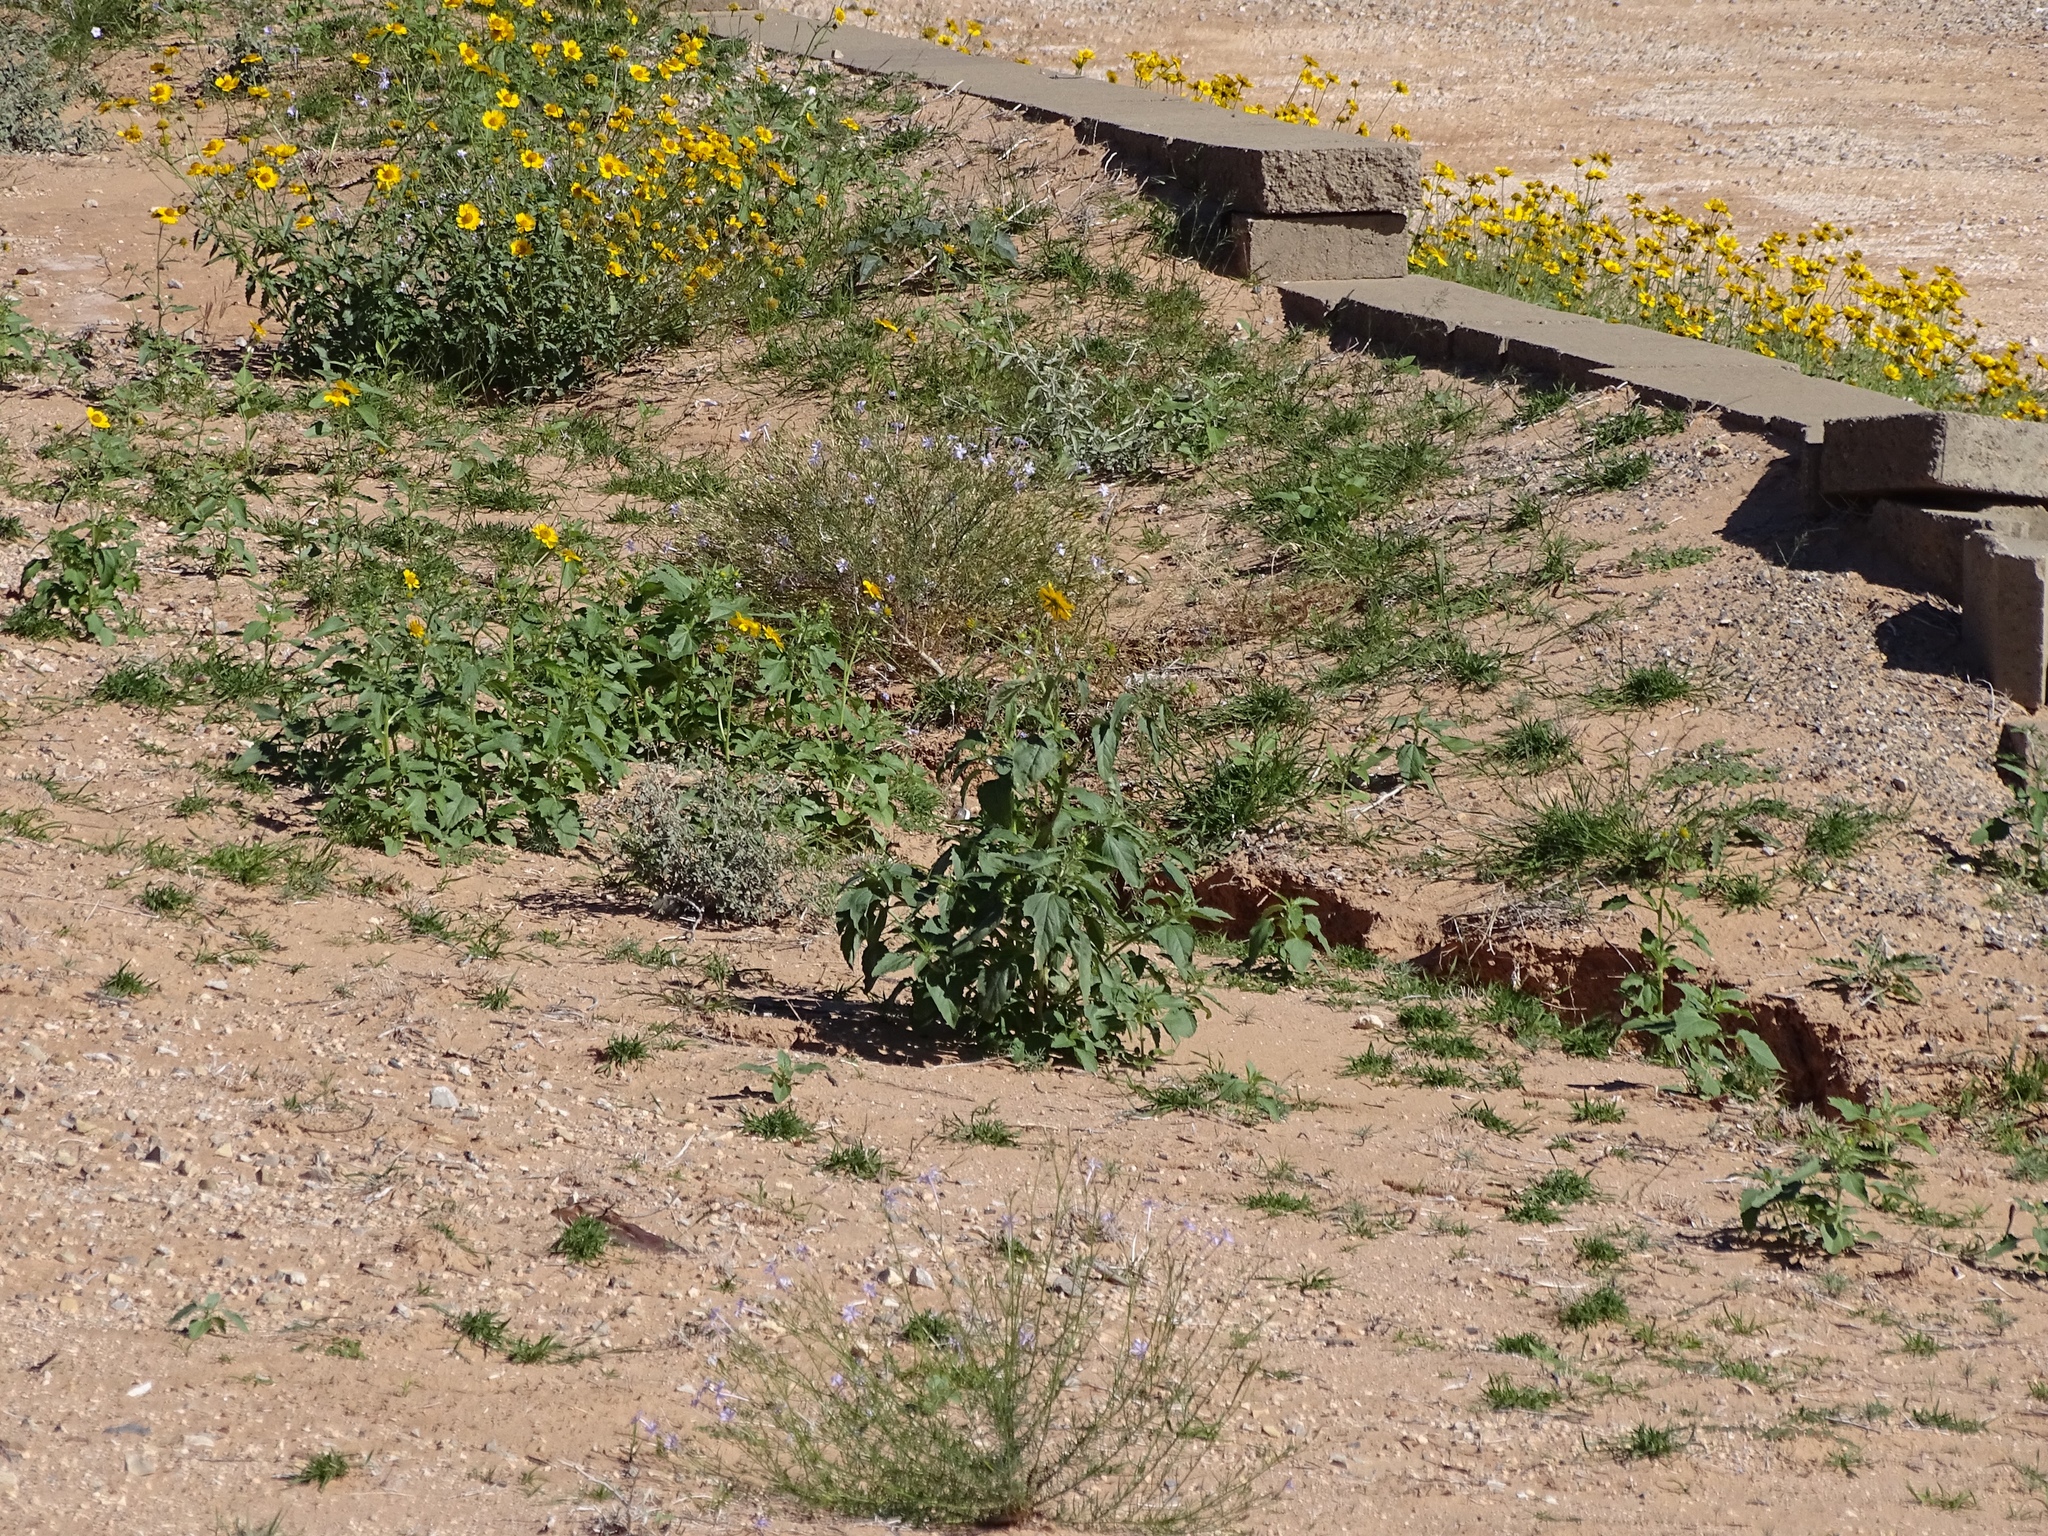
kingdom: Plantae
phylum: Tracheophyta
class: Magnoliopsida
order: Asterales
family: Asteraceae
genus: Verbesina
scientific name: Verbesina encelioides
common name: Golden crownbeard
